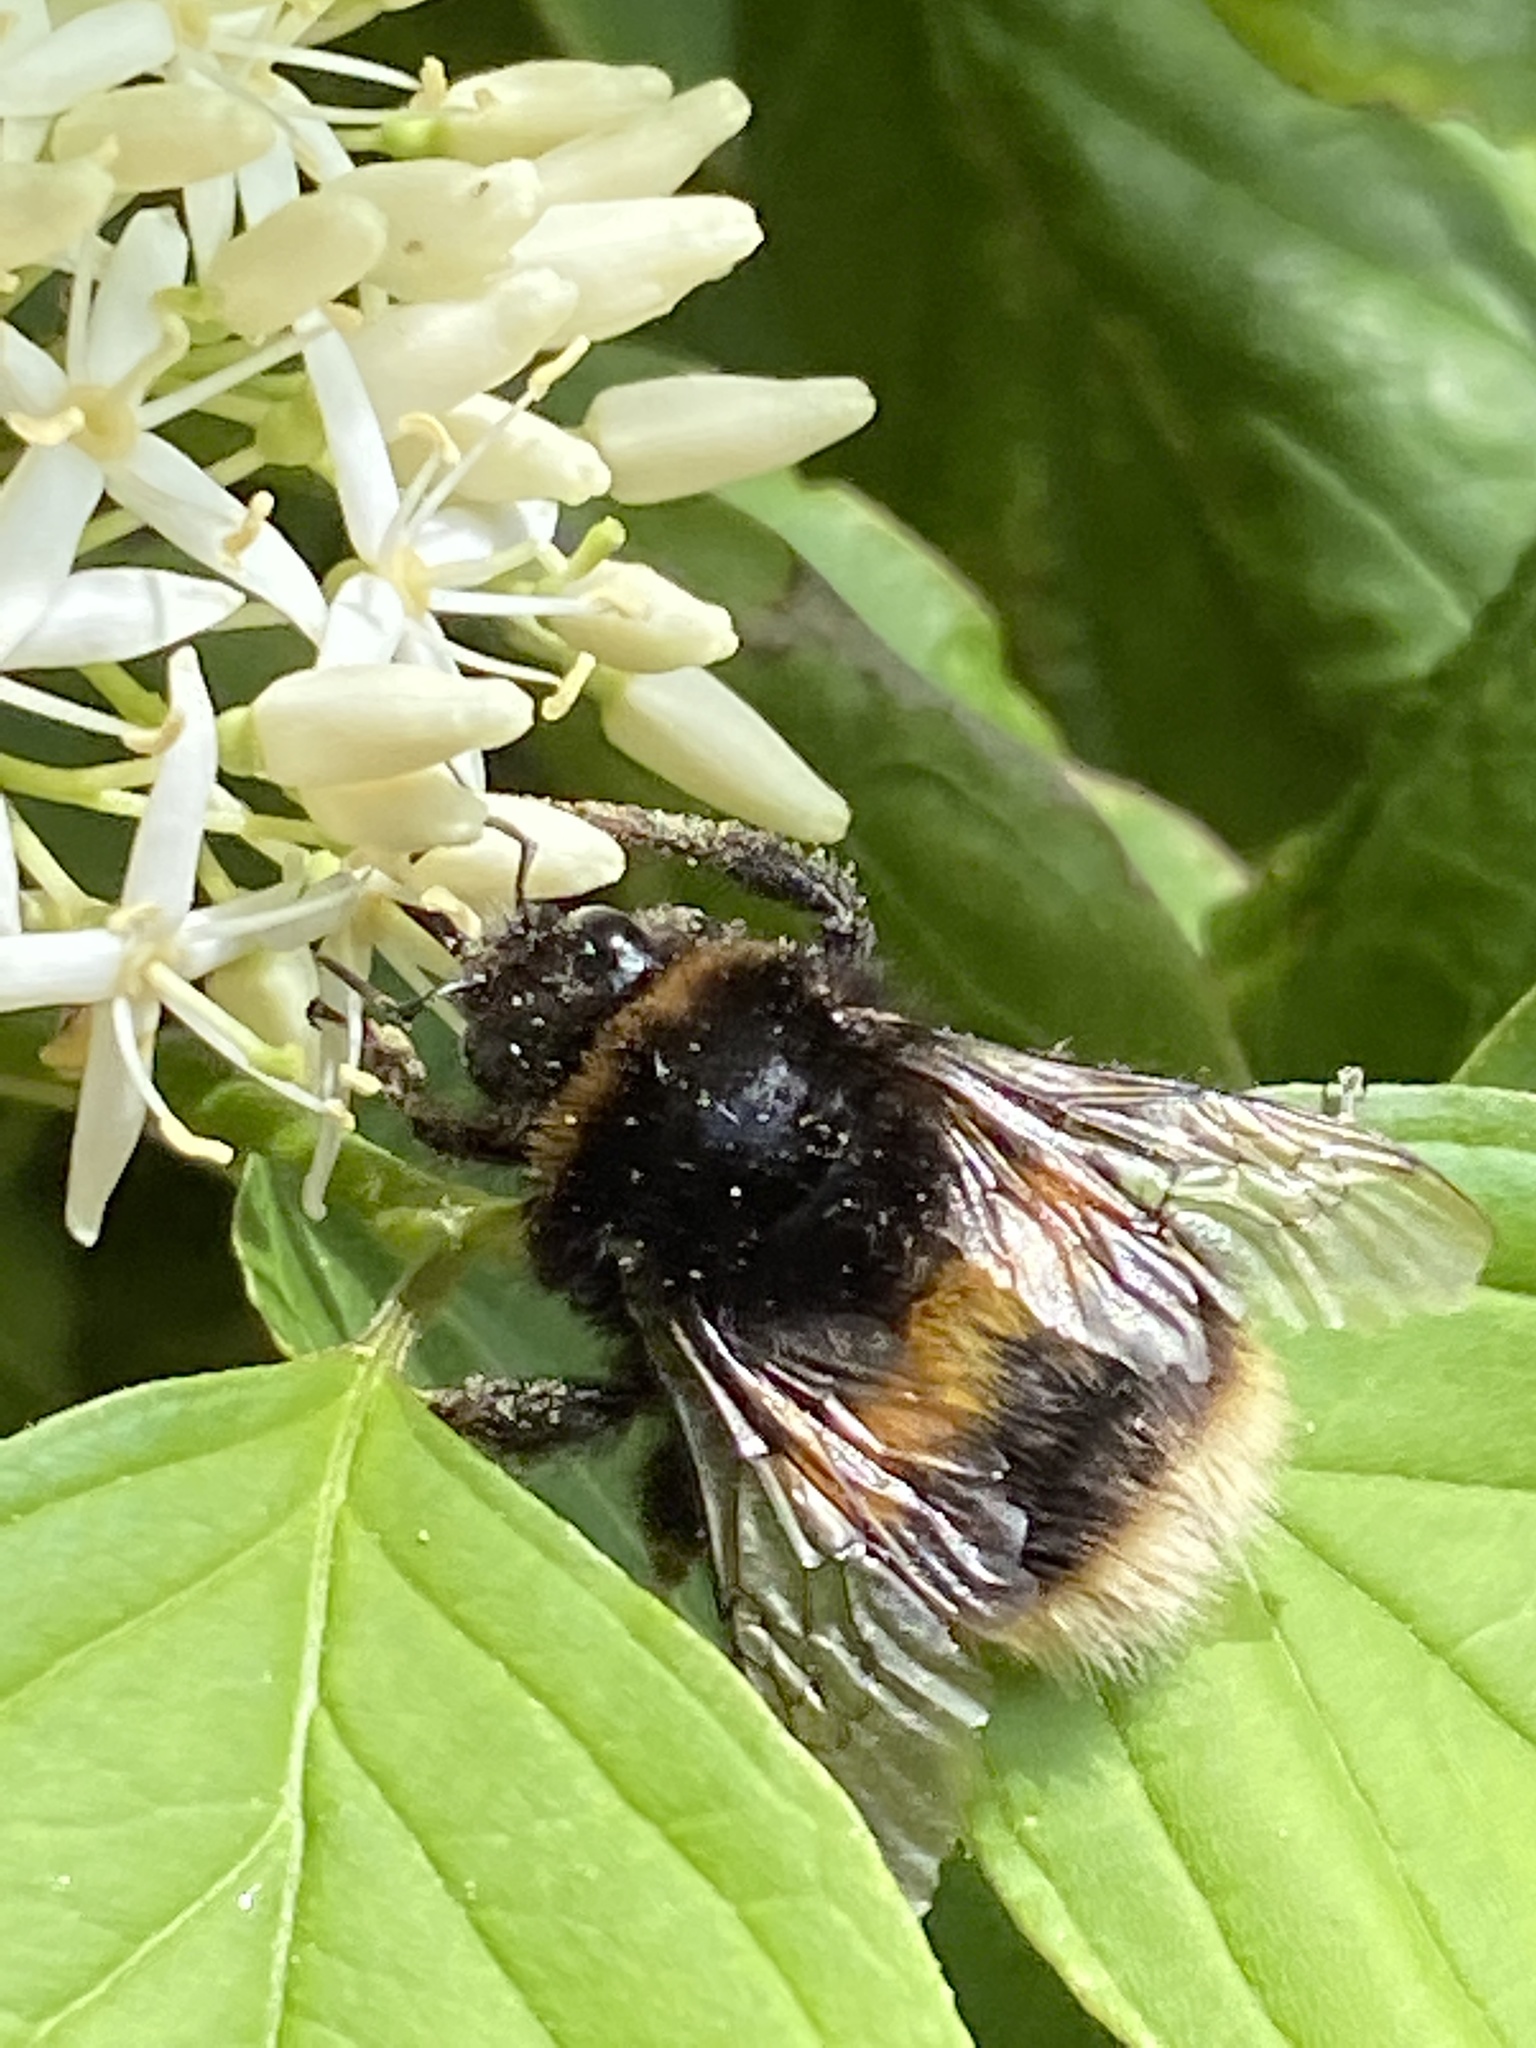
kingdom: Animalia
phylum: Arthropoda
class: Insecta
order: Hymenoptera
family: Apidae
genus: Bombus
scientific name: Bombus terrestris
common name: Buff-tailed bumblebee
